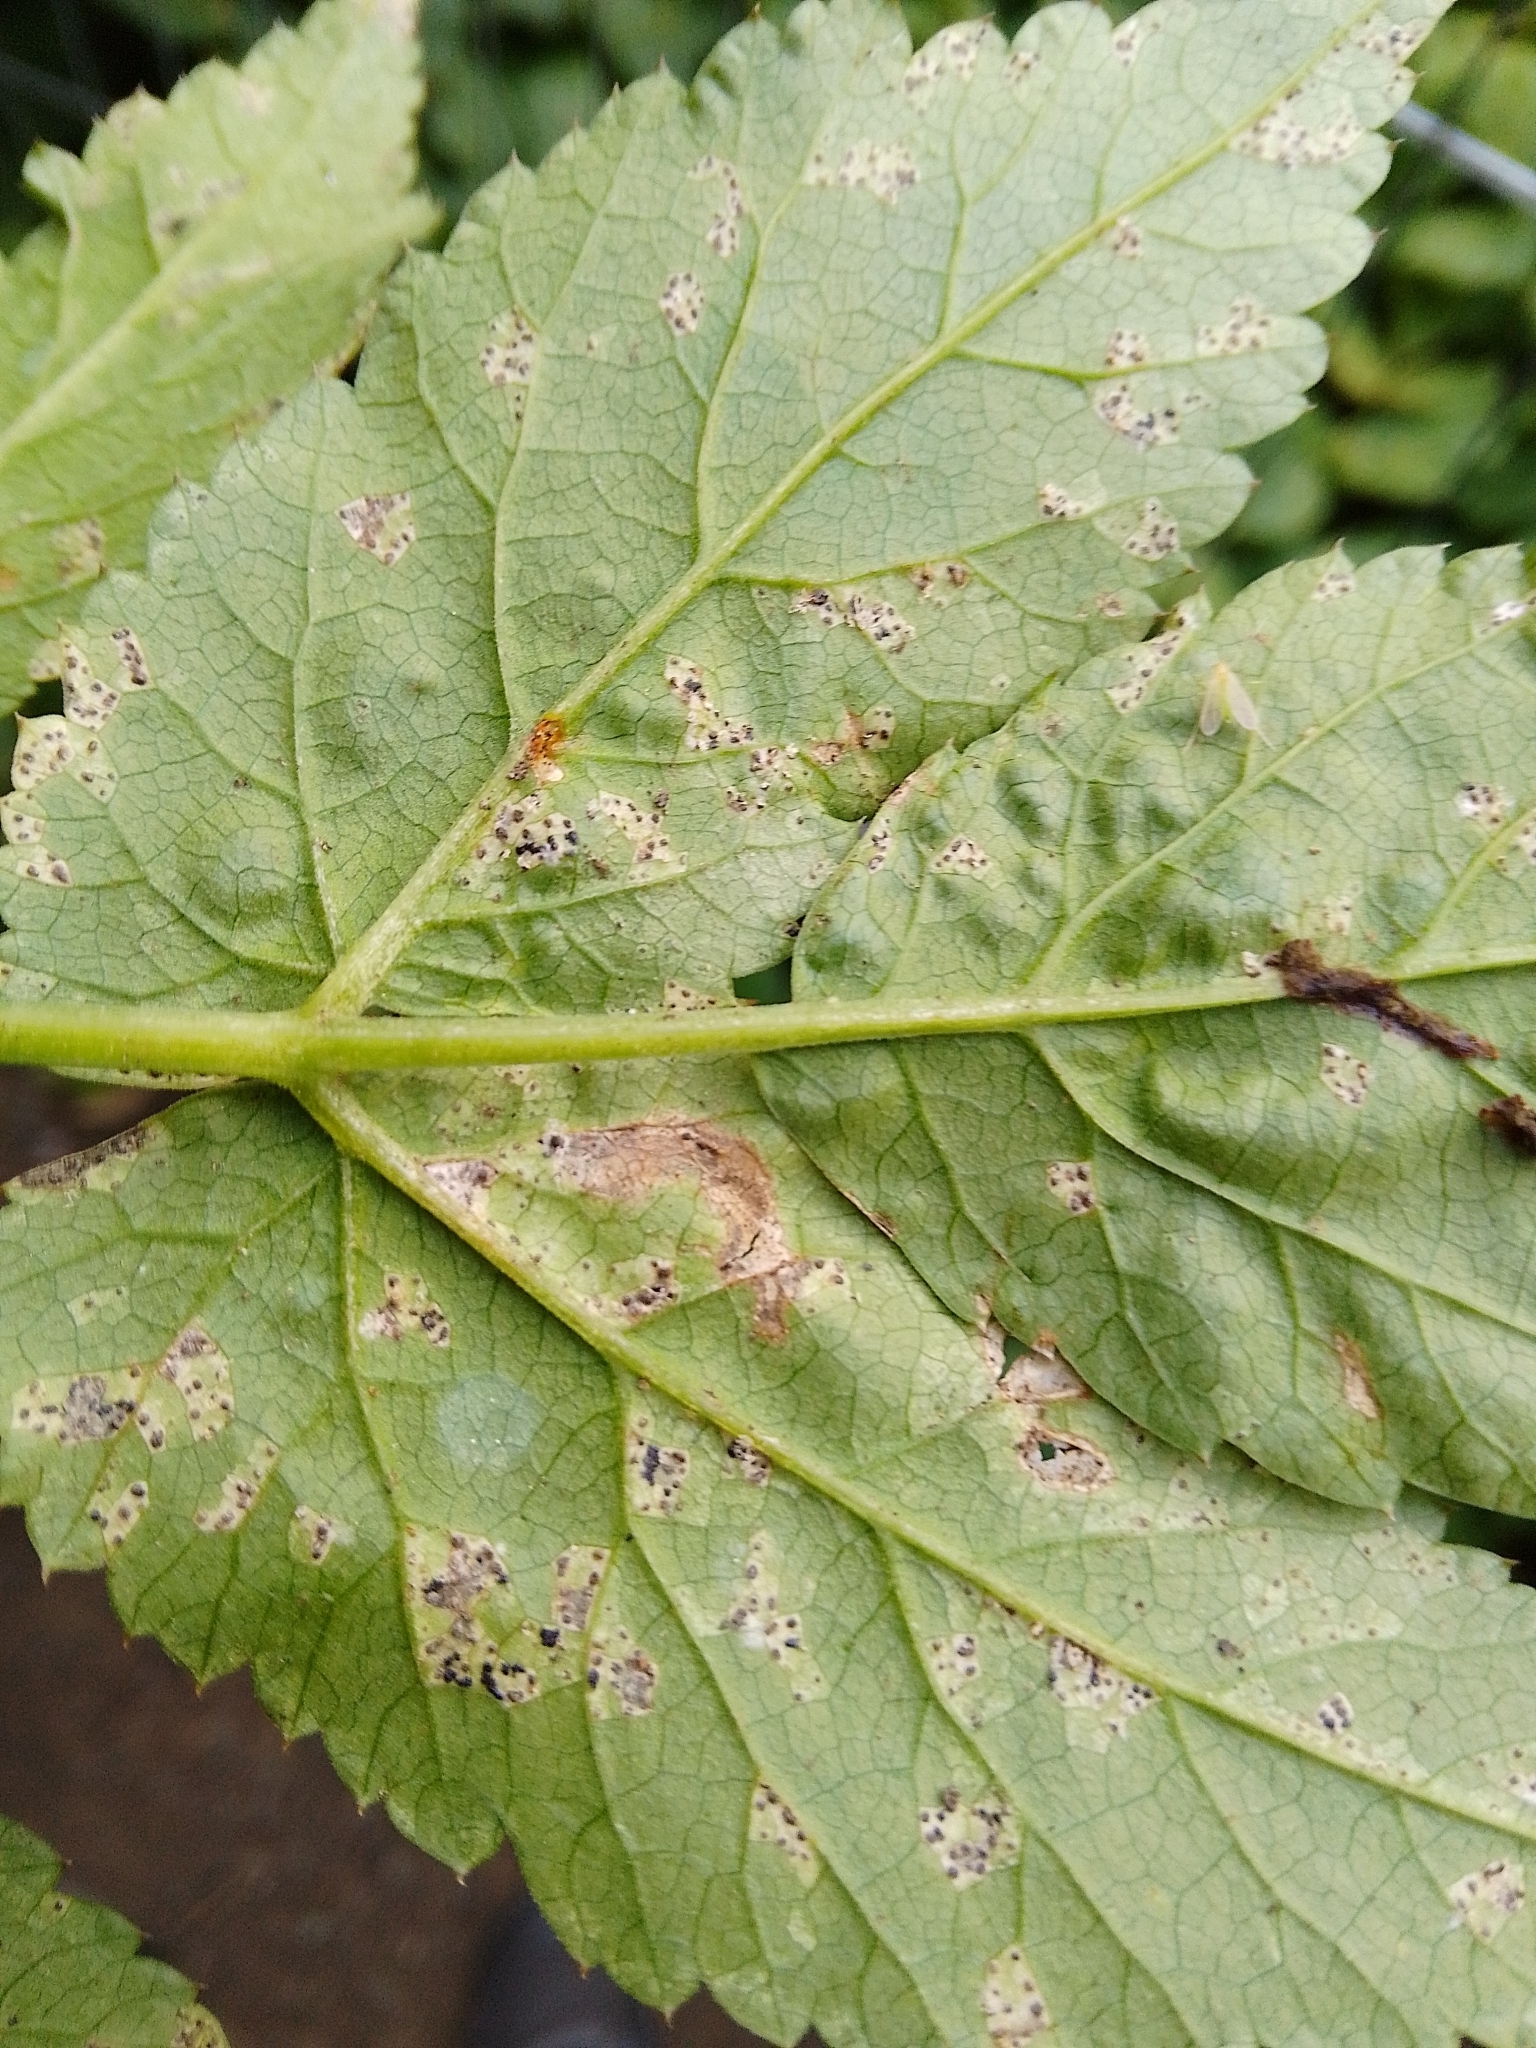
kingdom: Fungi
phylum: Basidiomycota
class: Pucciniomycetes
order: Pucciniales
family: Pucciniaceae
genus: Puccinia
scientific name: Puccinia aegopodii
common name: Ground elder rust
